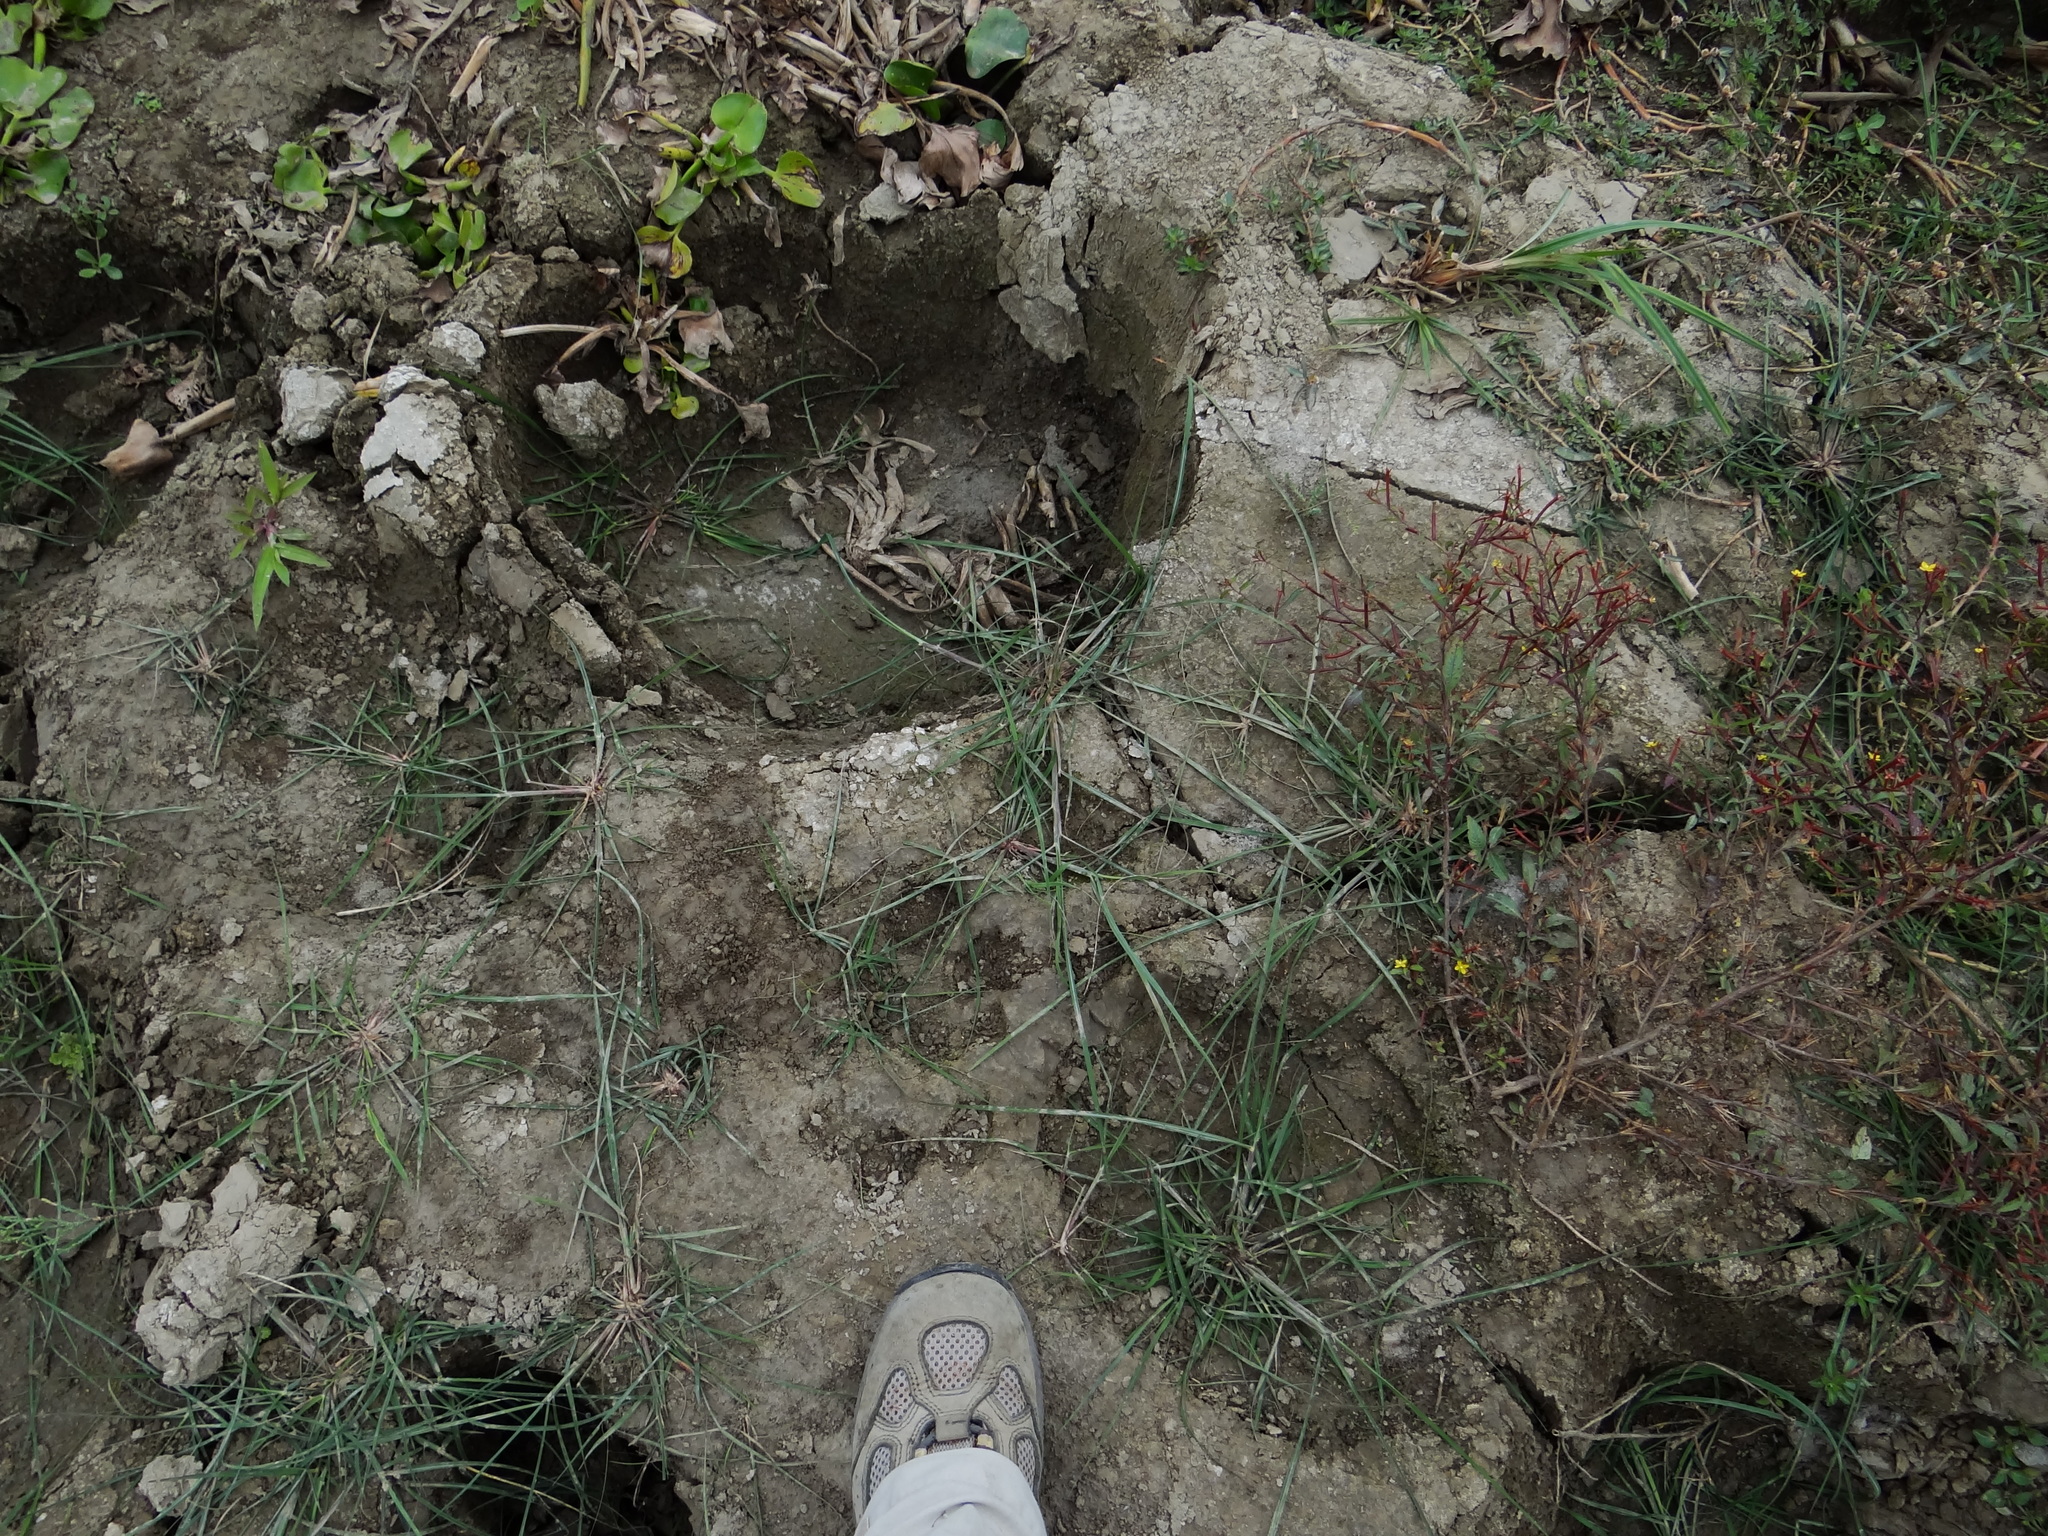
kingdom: Animalia
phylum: Chordata
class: Mammalia
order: Proboscidea
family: Elephantidae
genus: Elephas
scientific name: Elephas maximus
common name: Asian elephant
